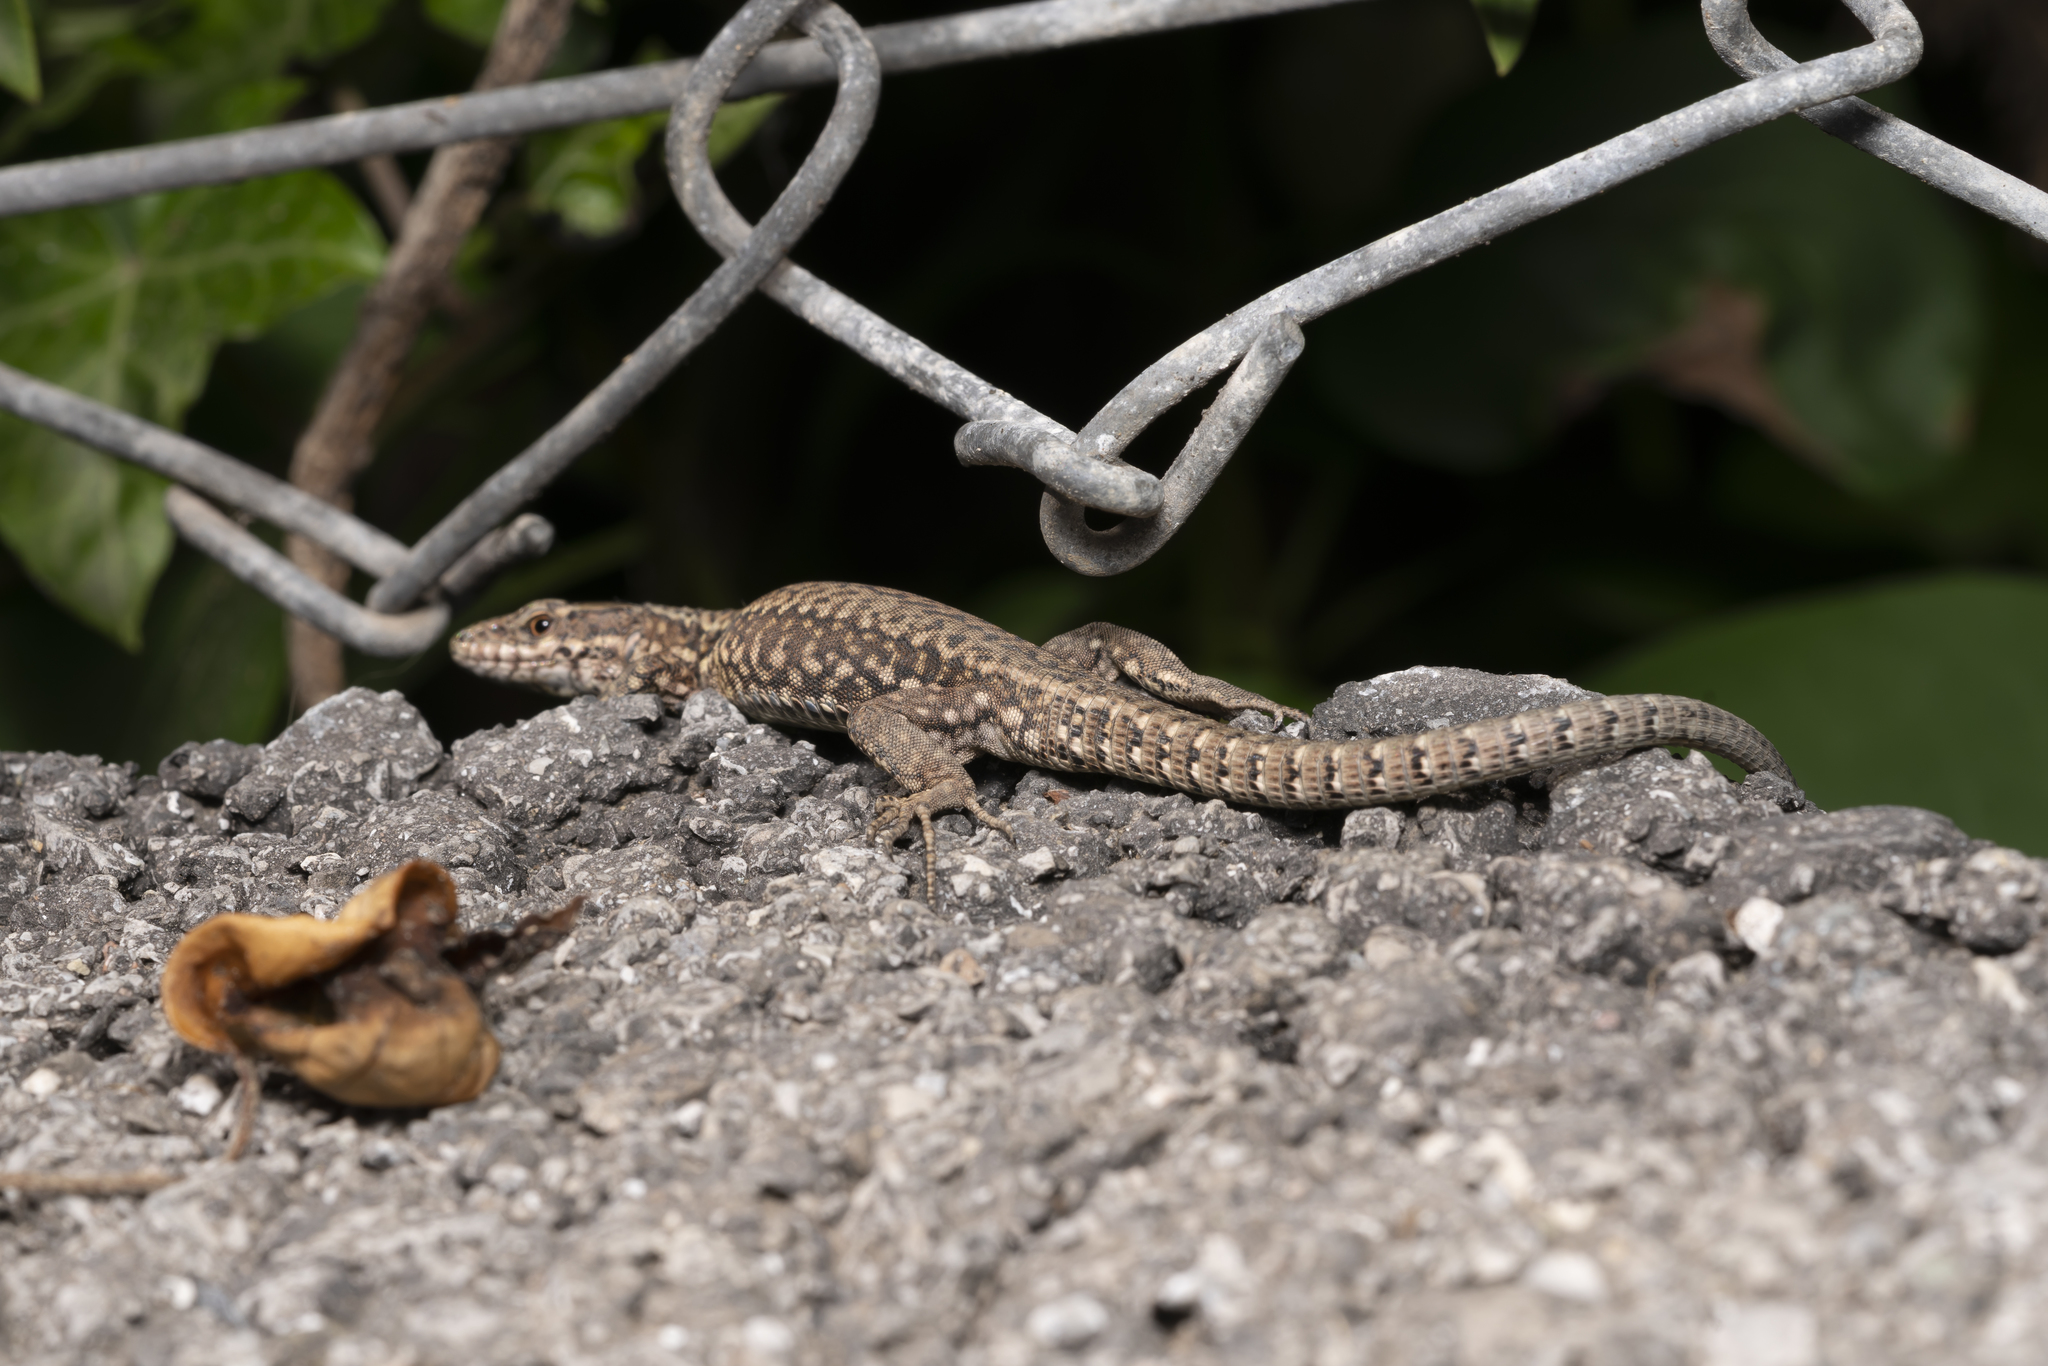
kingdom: Animalia
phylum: Chordata
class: Squamata
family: Lacertidae
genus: Podarcis
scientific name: Podarcis muralis
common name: Common wall lizard
